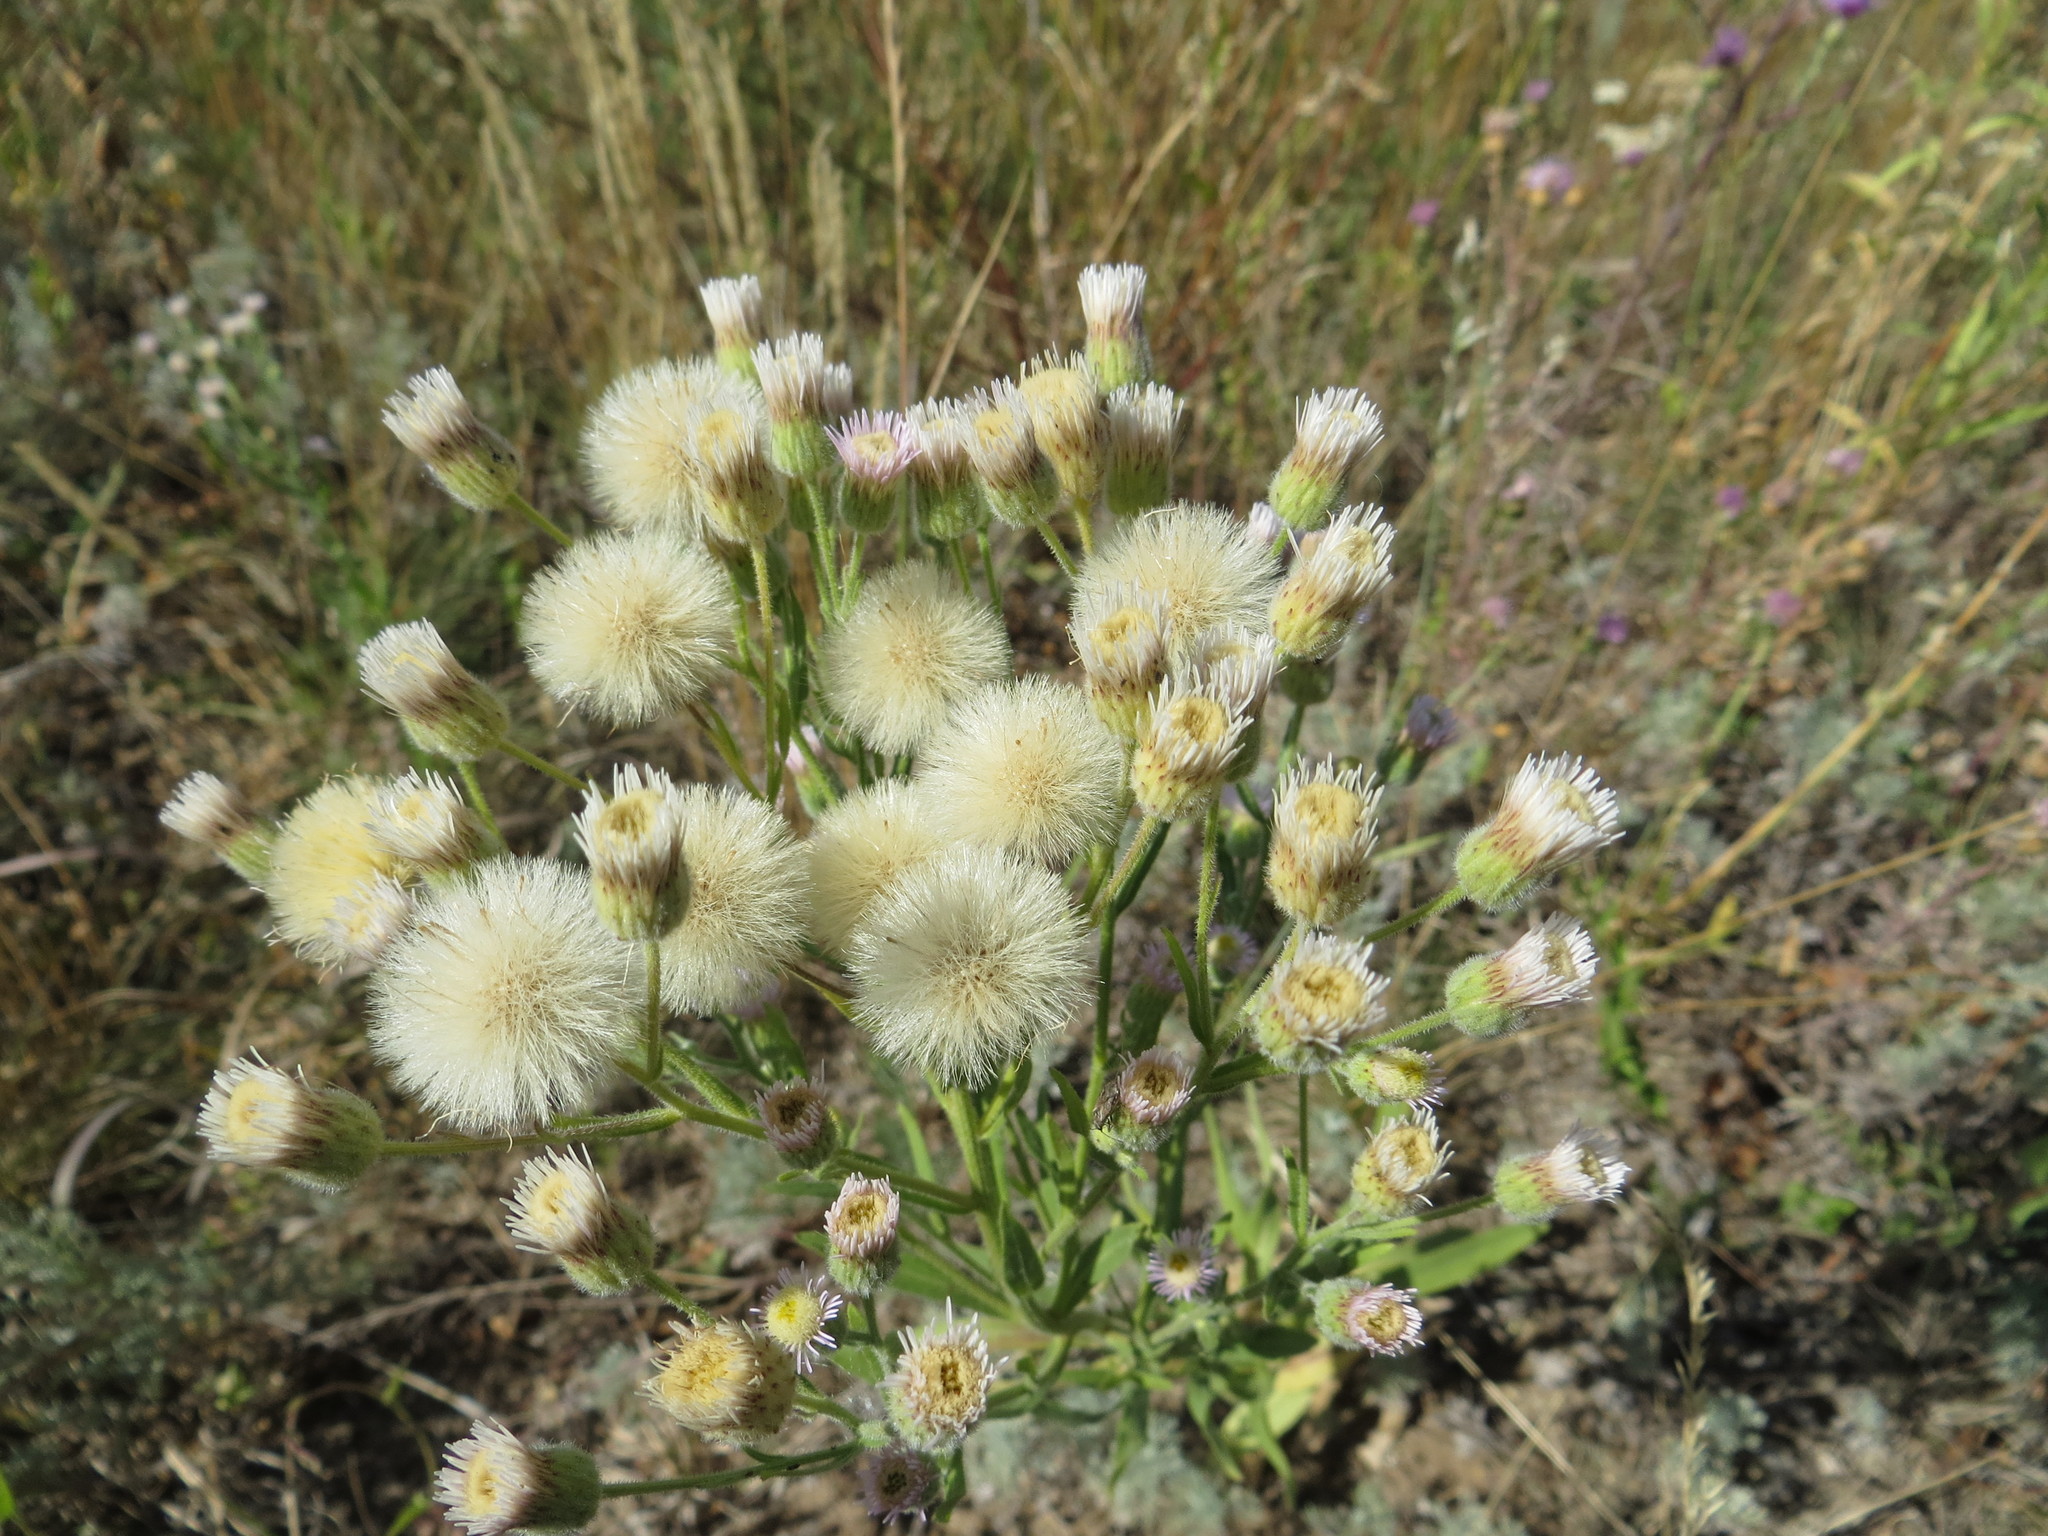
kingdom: Plantae
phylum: Tracheophyta
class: Magnoliopsida
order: Asterales
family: Asteraceae
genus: Erigeron
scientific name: Erigeron acris
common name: Blue fleabane
